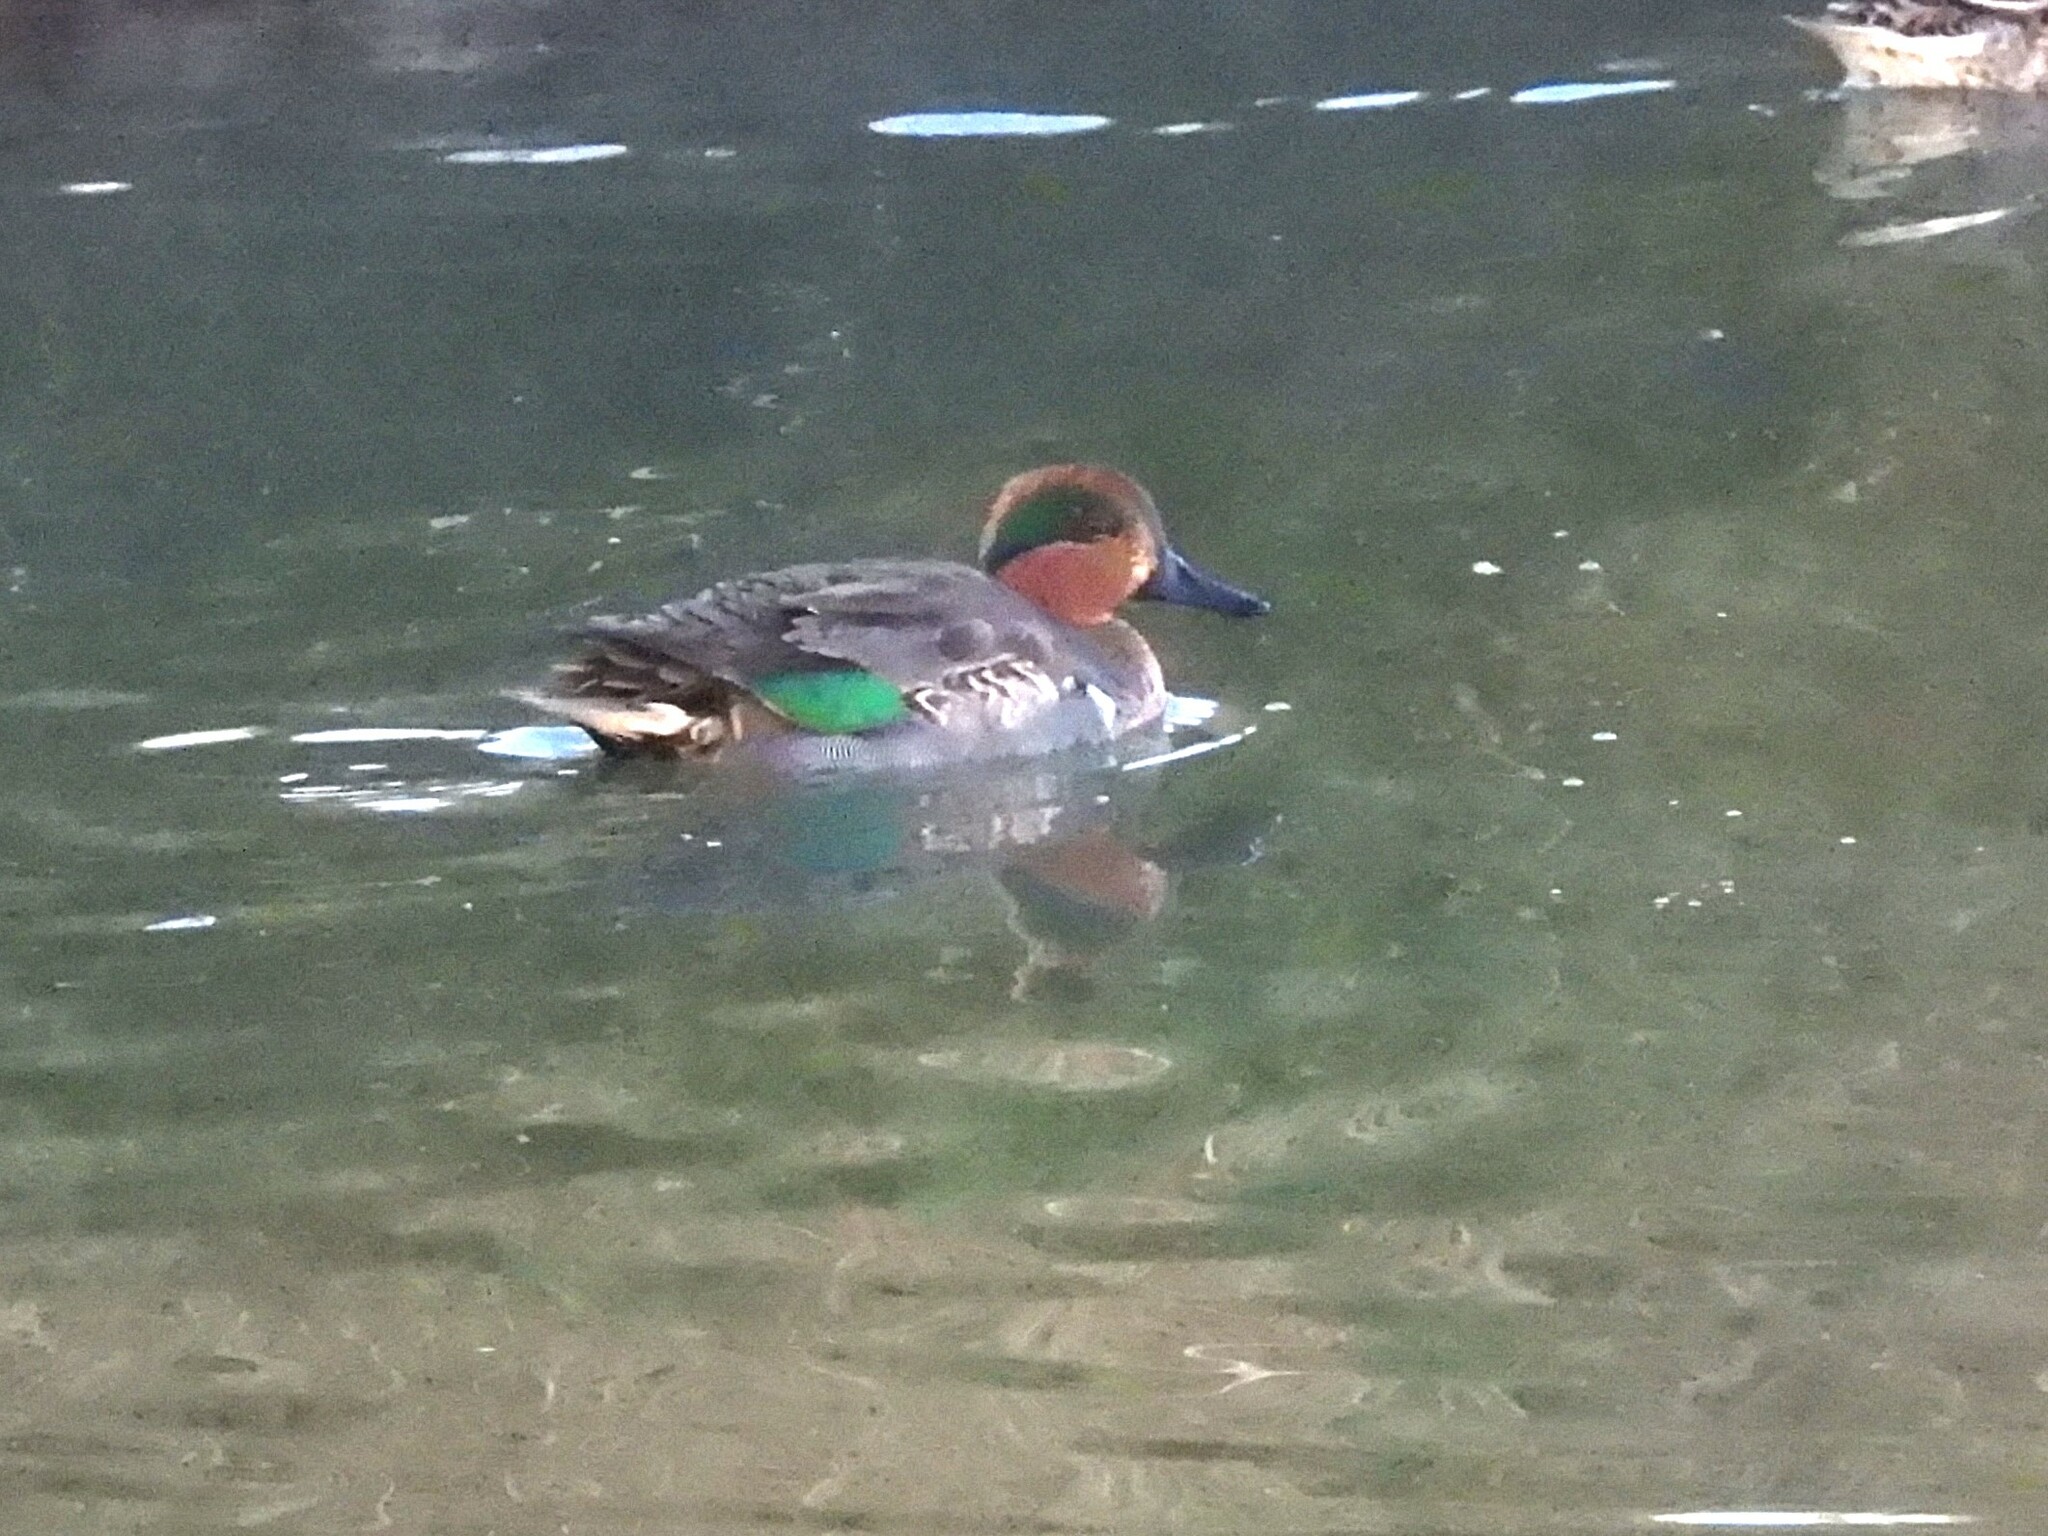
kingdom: Animalia
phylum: Chordata
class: Aves
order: Anseriformes
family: Anatidae
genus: Anas
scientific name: Anas crecca
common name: Eurasian teal
